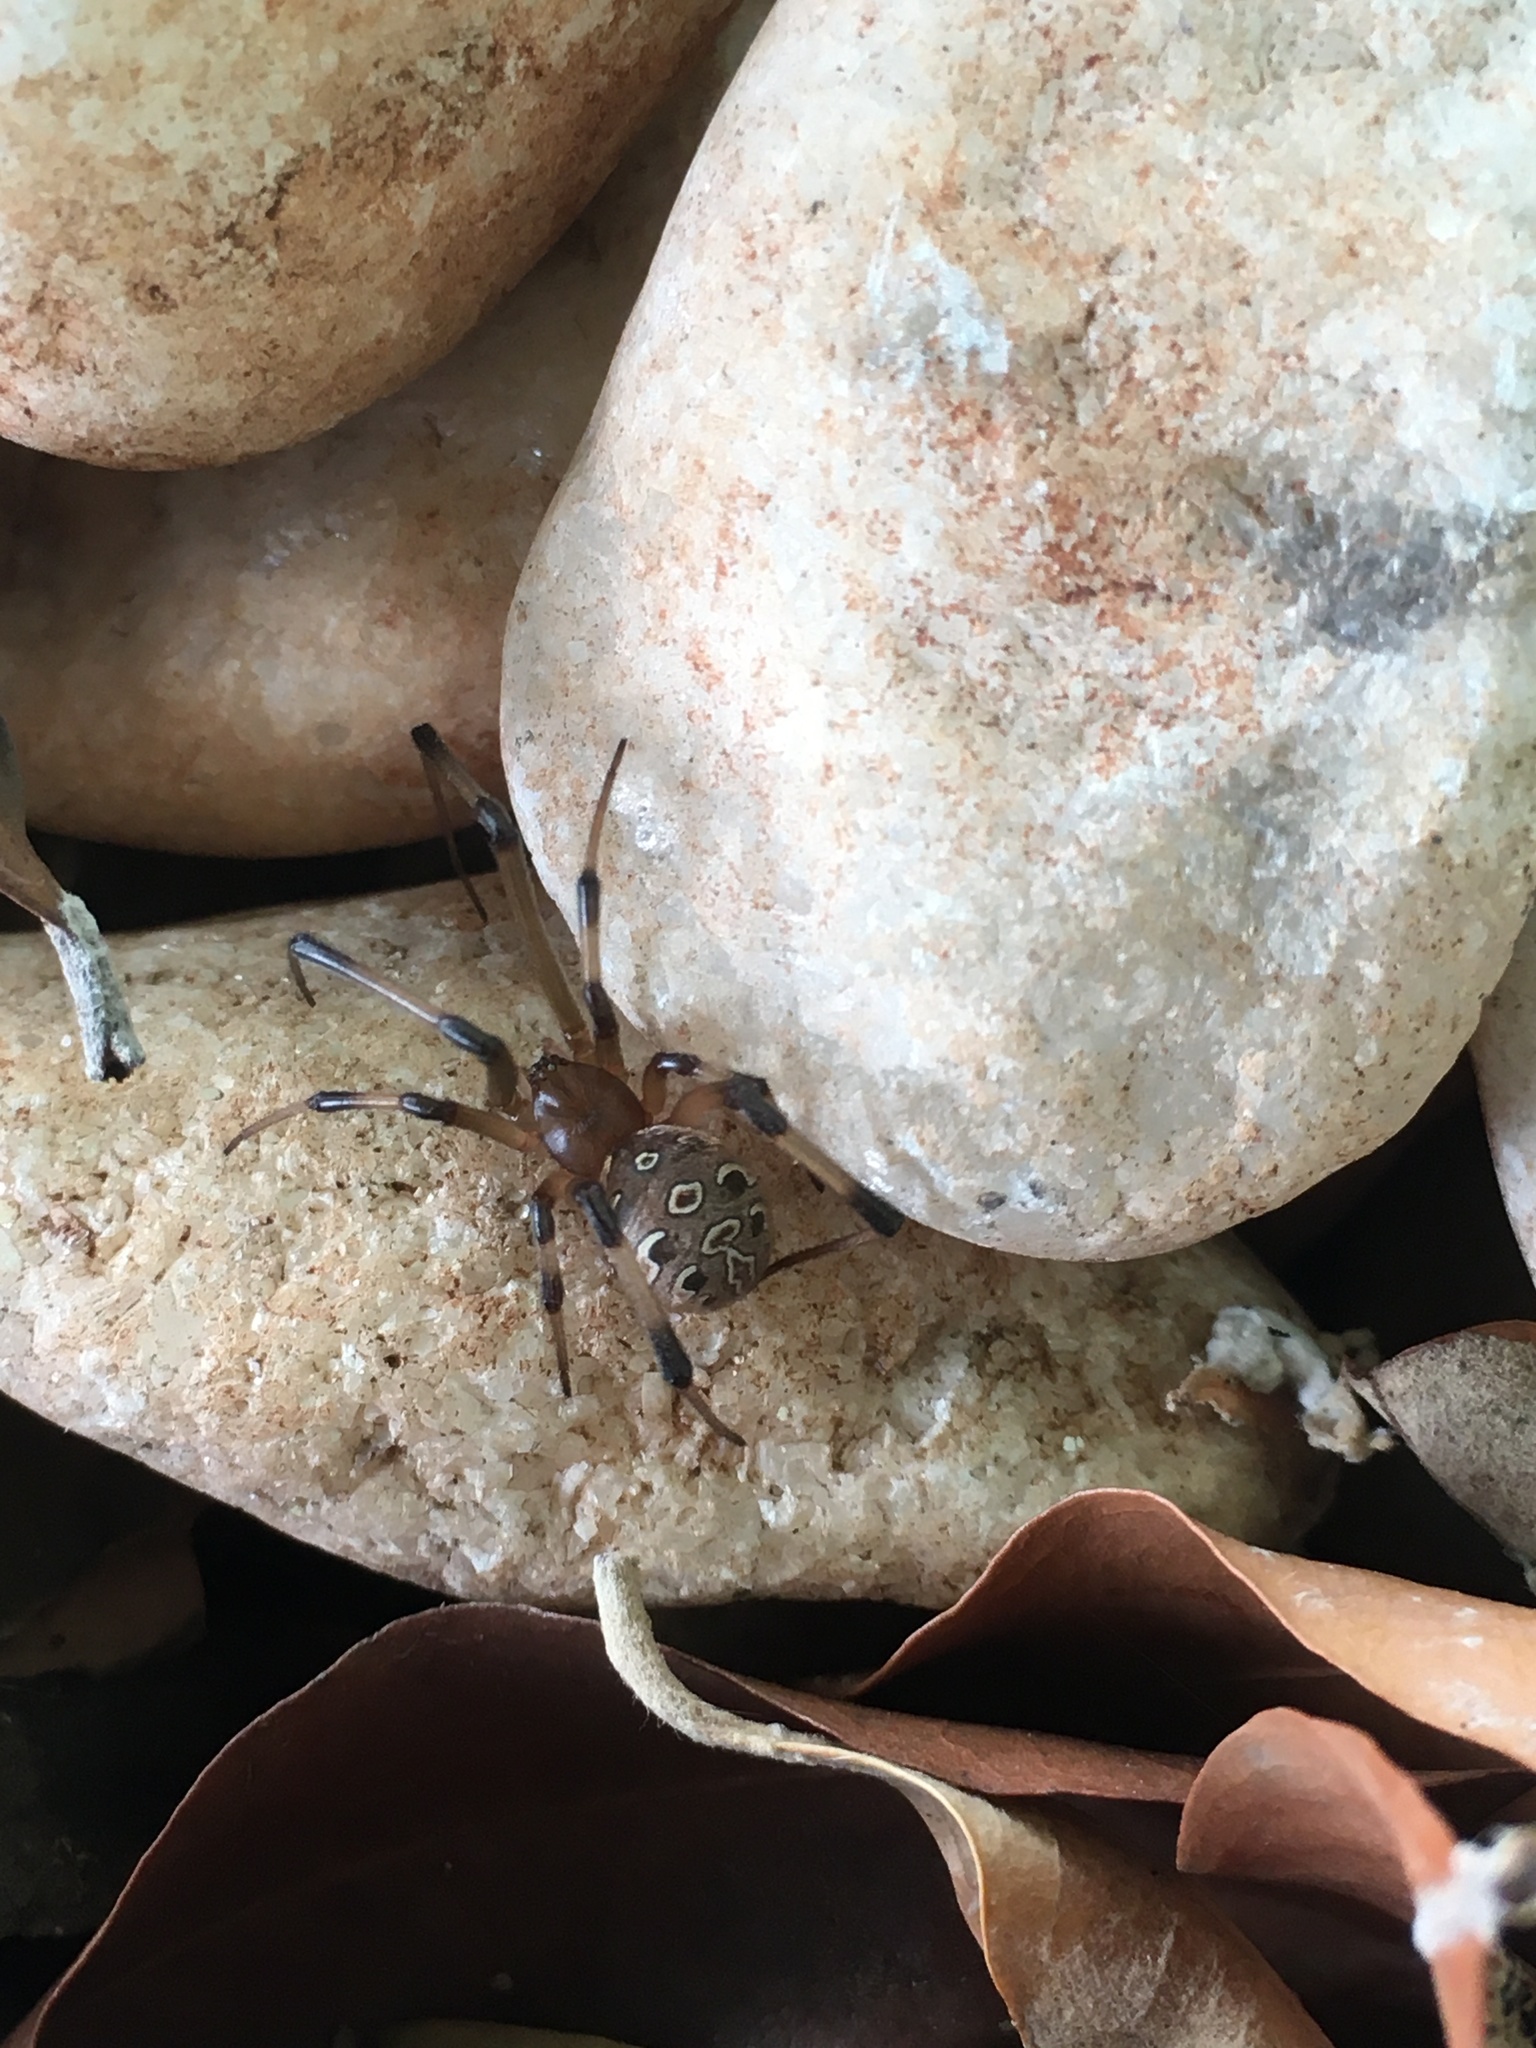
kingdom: Animalia
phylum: Arthropoda
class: Arachnida
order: Araneae
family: Theridiidae
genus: Latrodectus
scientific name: Latrodectus geometricus
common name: Brown widow spider
